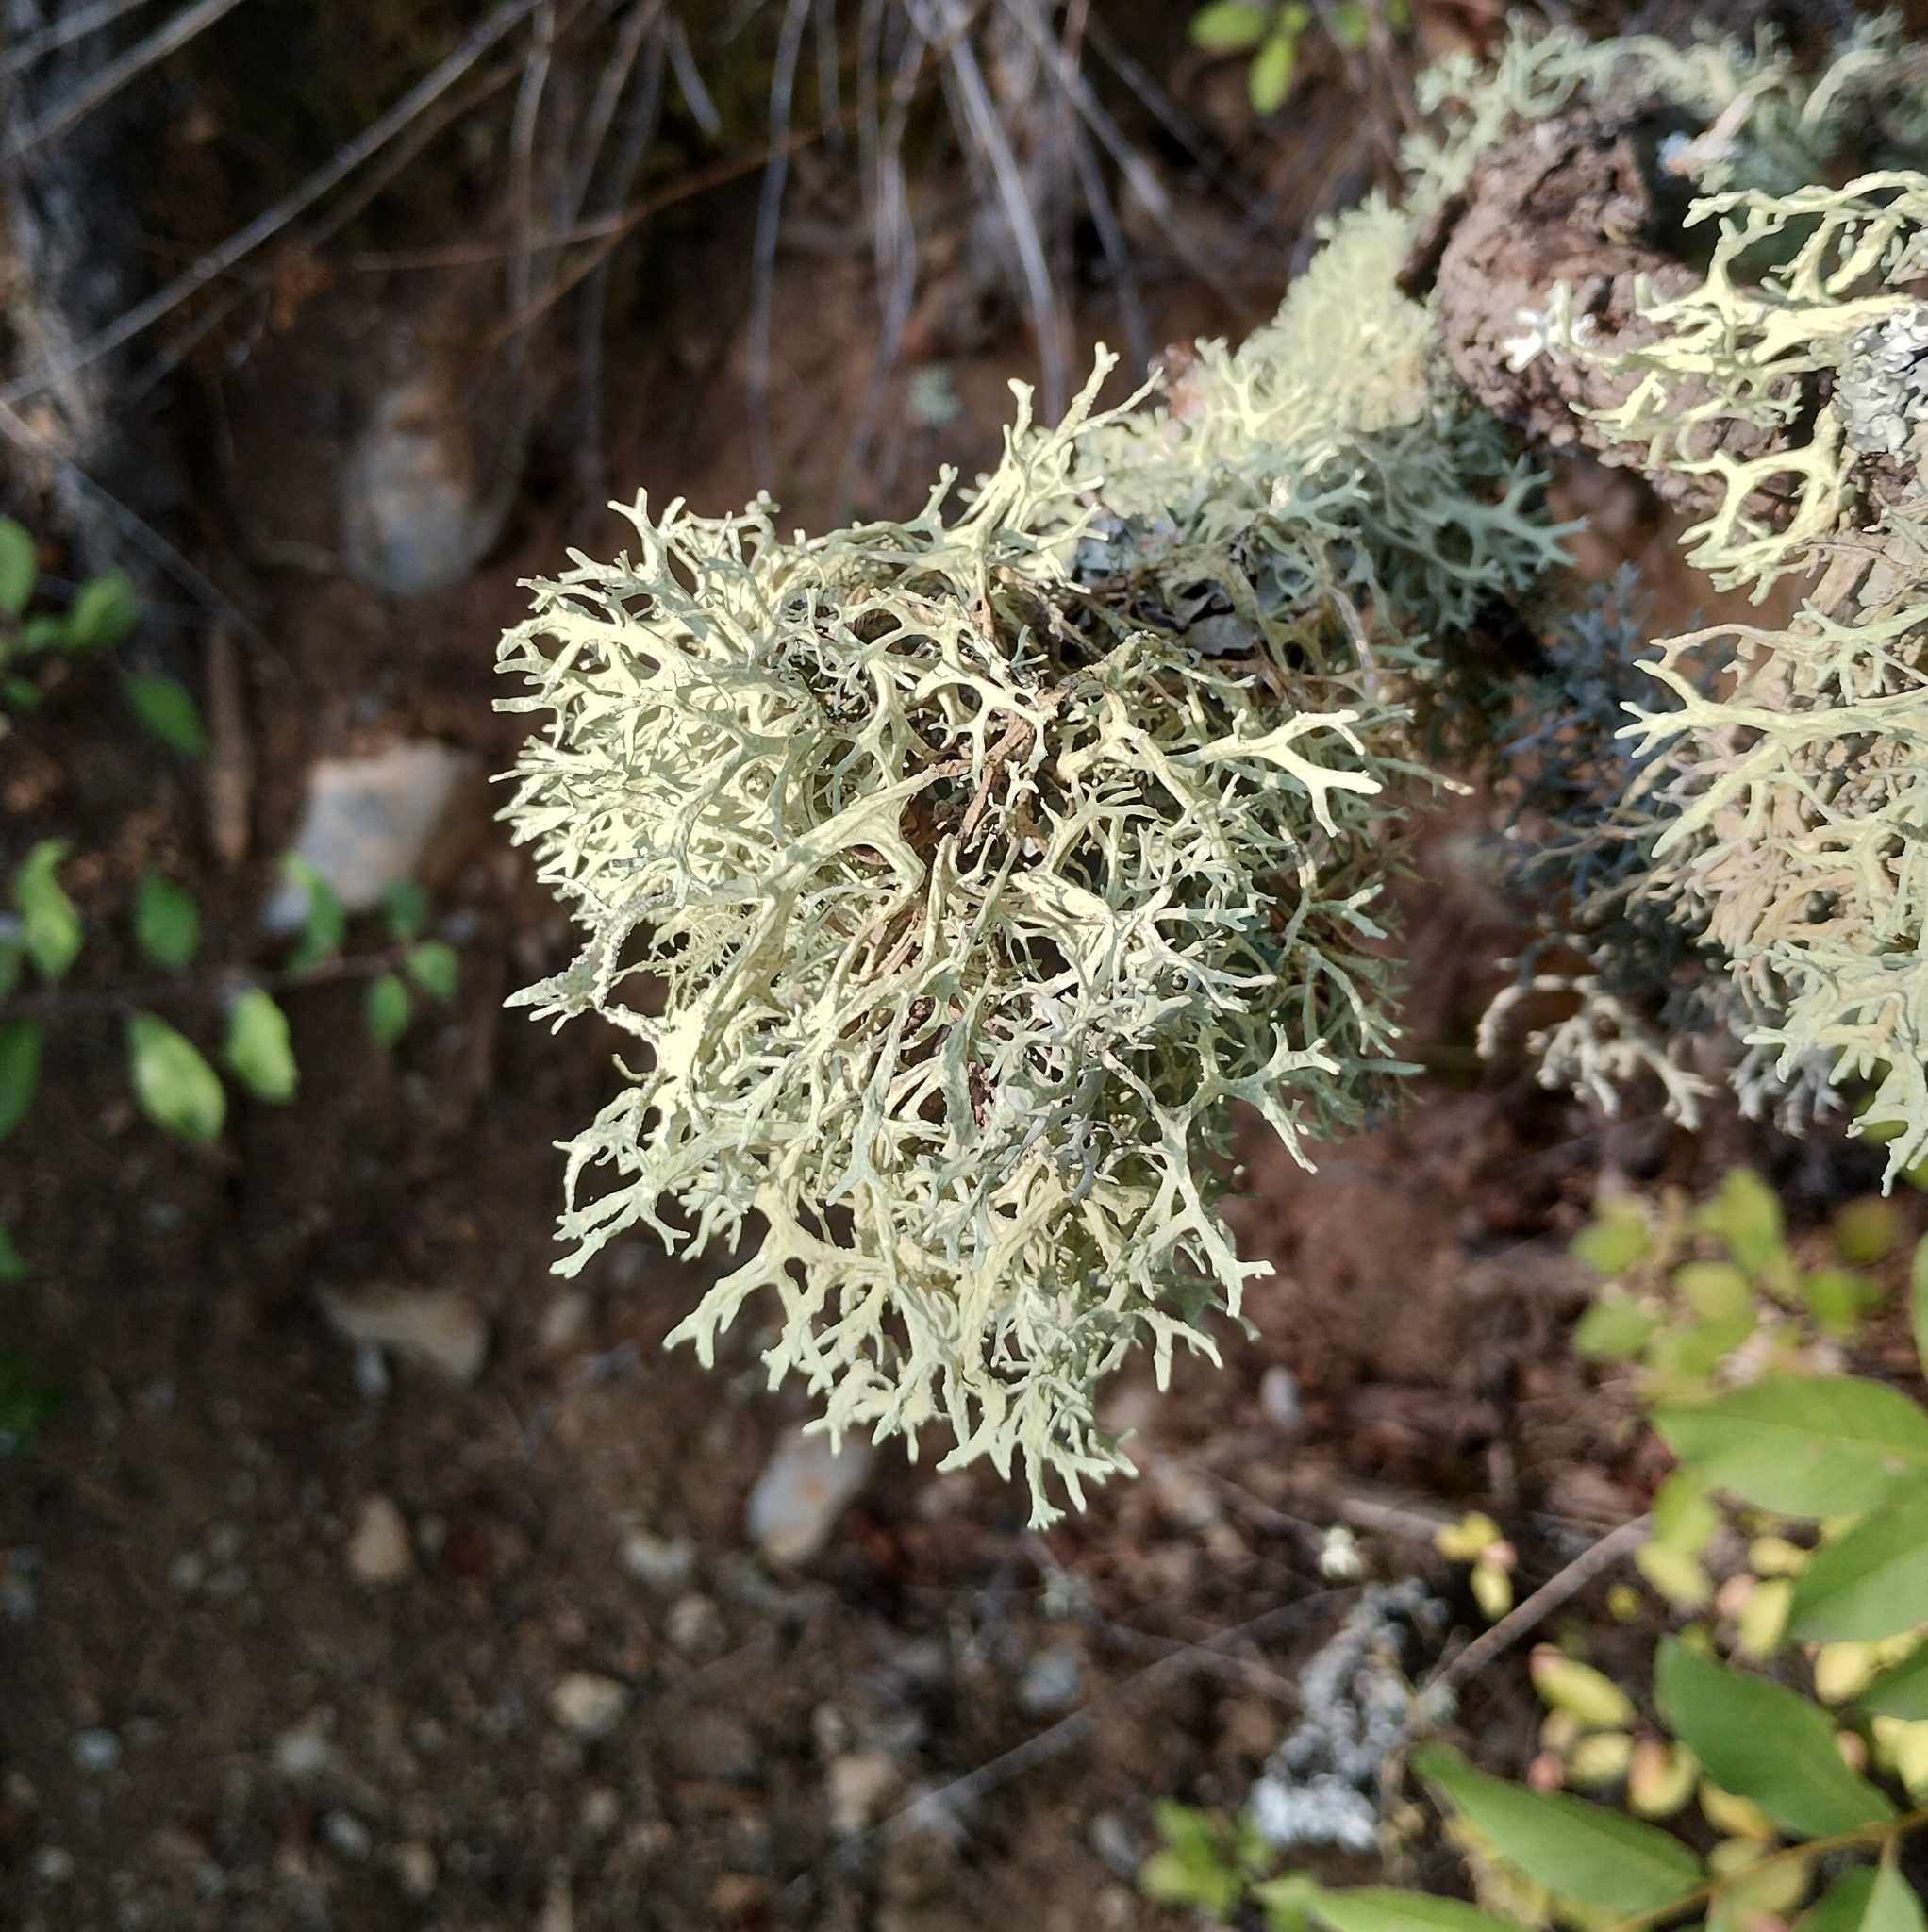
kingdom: Fungi
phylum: Ascomycota
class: Lecanoromycetes
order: Lecanorales
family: Parmeliaceae
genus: Evernia
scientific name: Evernia prunastri
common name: Oak moss
